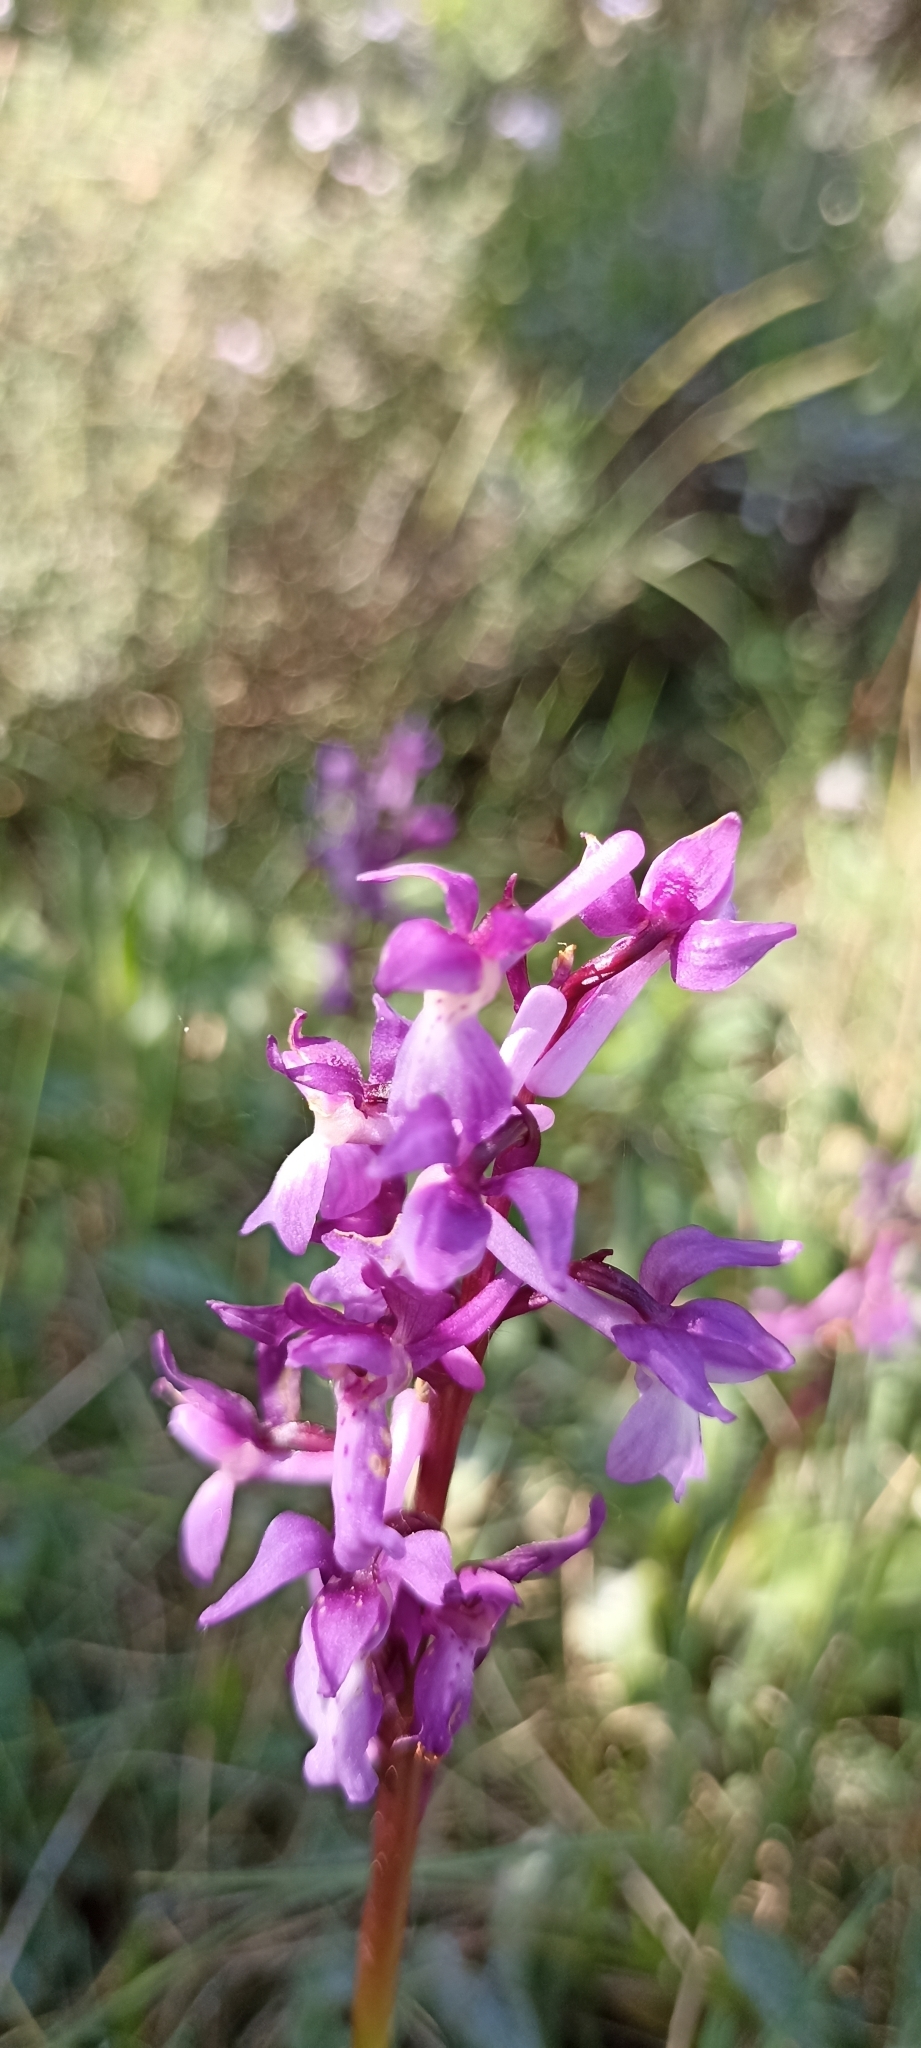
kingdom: Plantae
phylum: Tracheophyta
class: Liliopsida
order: Asparagales
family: Orchidaceae
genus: Orchis
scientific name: Orchis mascula
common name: Early-purple orchid
